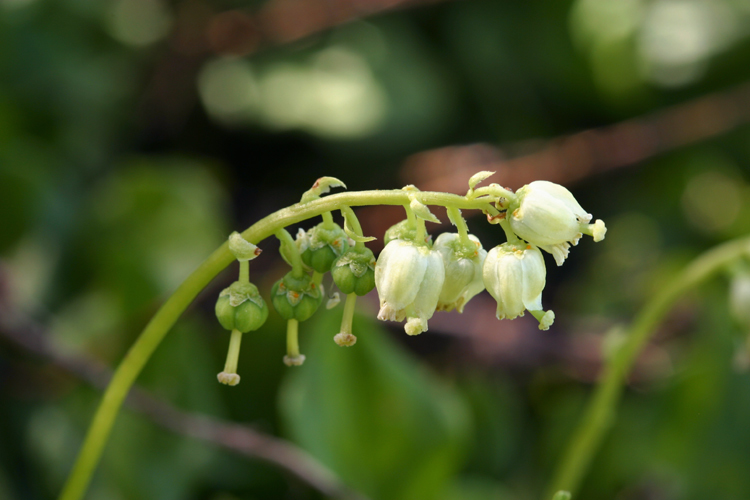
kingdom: Plantae
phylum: Tracheophyta
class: Magnoliopsida
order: Ericales
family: Ericaceae
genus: Orthilia
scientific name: Orthilia secunda
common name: One-sided orthilia
